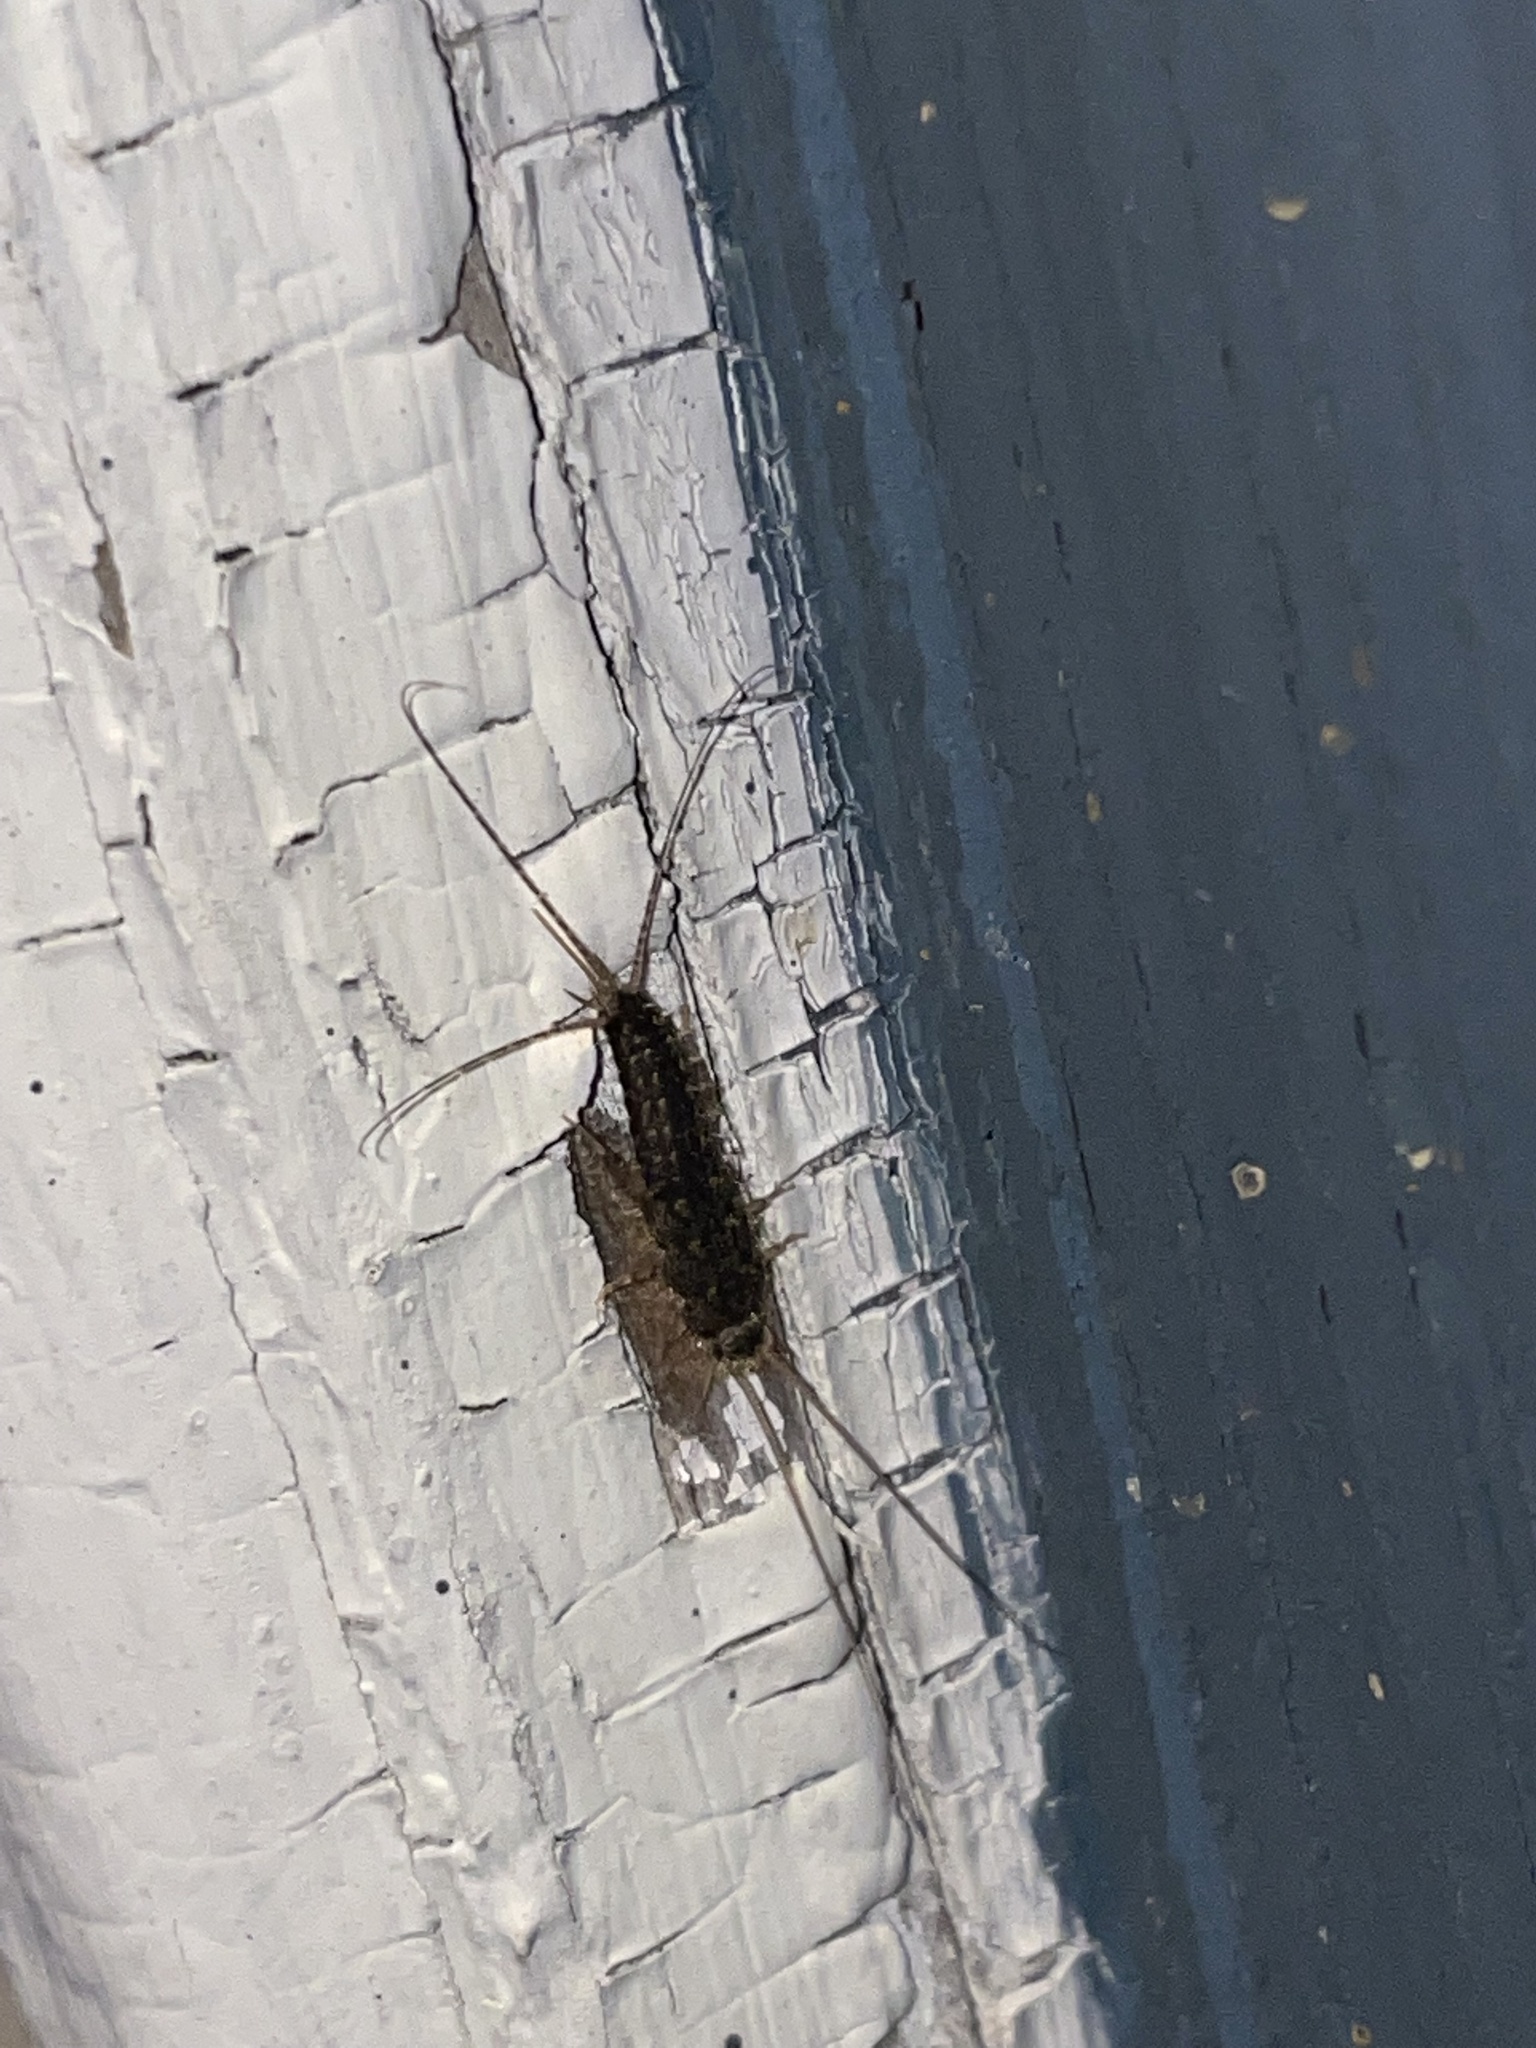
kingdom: Animalia
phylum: Arthropoda
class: Insecta
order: Zygentoma
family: Lepismatidae
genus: Ctenolepisma
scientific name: Ctenolepisma lineata
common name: Four-lined silverfish
